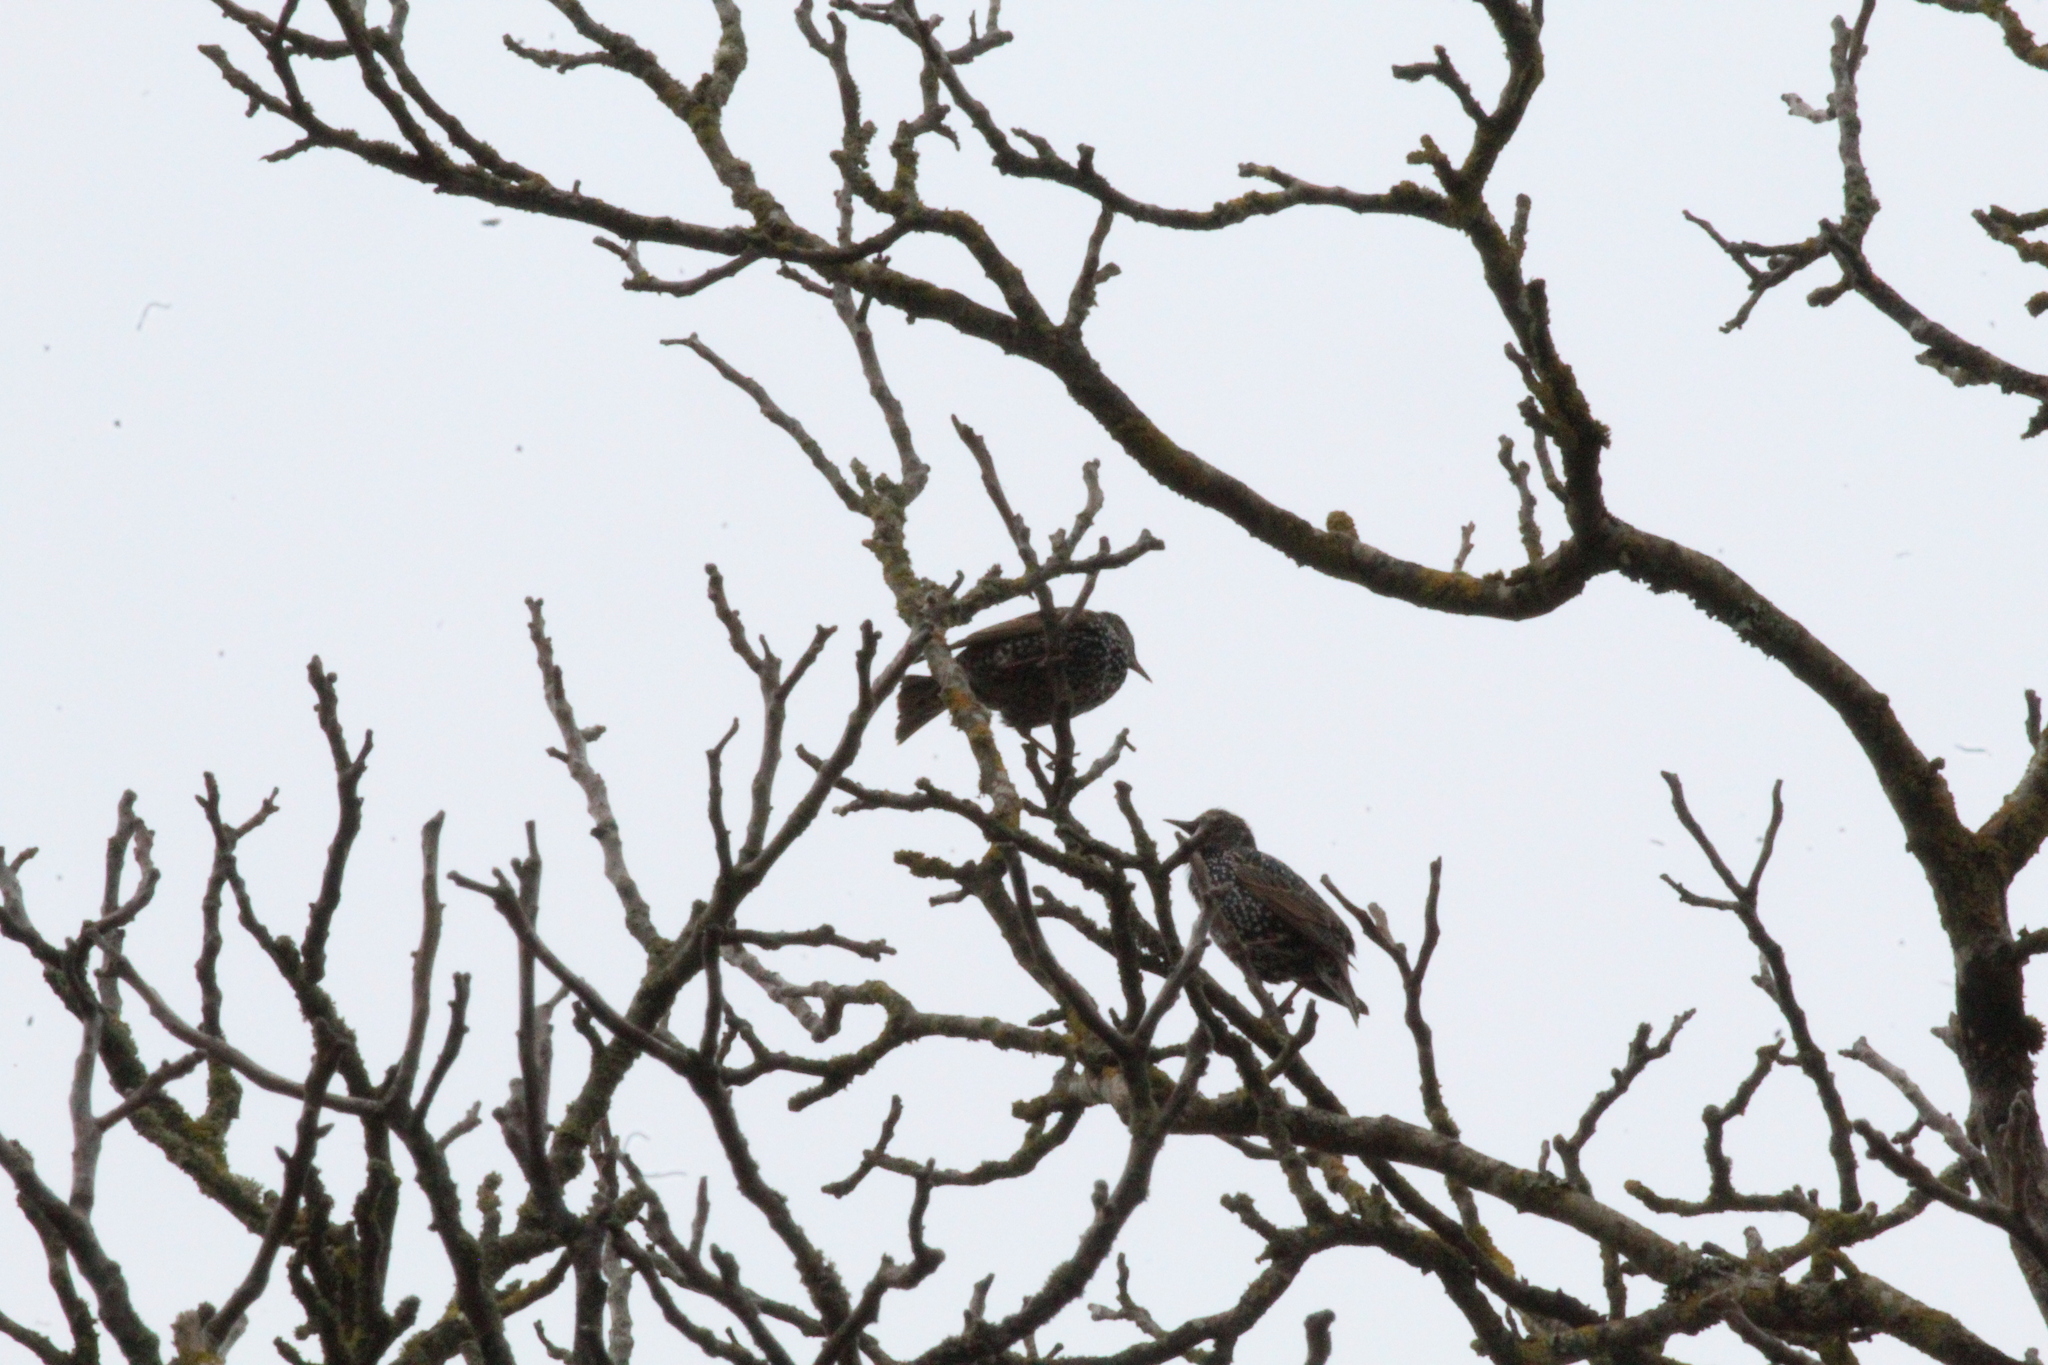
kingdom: Animalia
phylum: Chordata
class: Aves
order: Passeriformes
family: Sturnidae
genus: Sturnus
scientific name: Sturnus vulgaris
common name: Common starling
